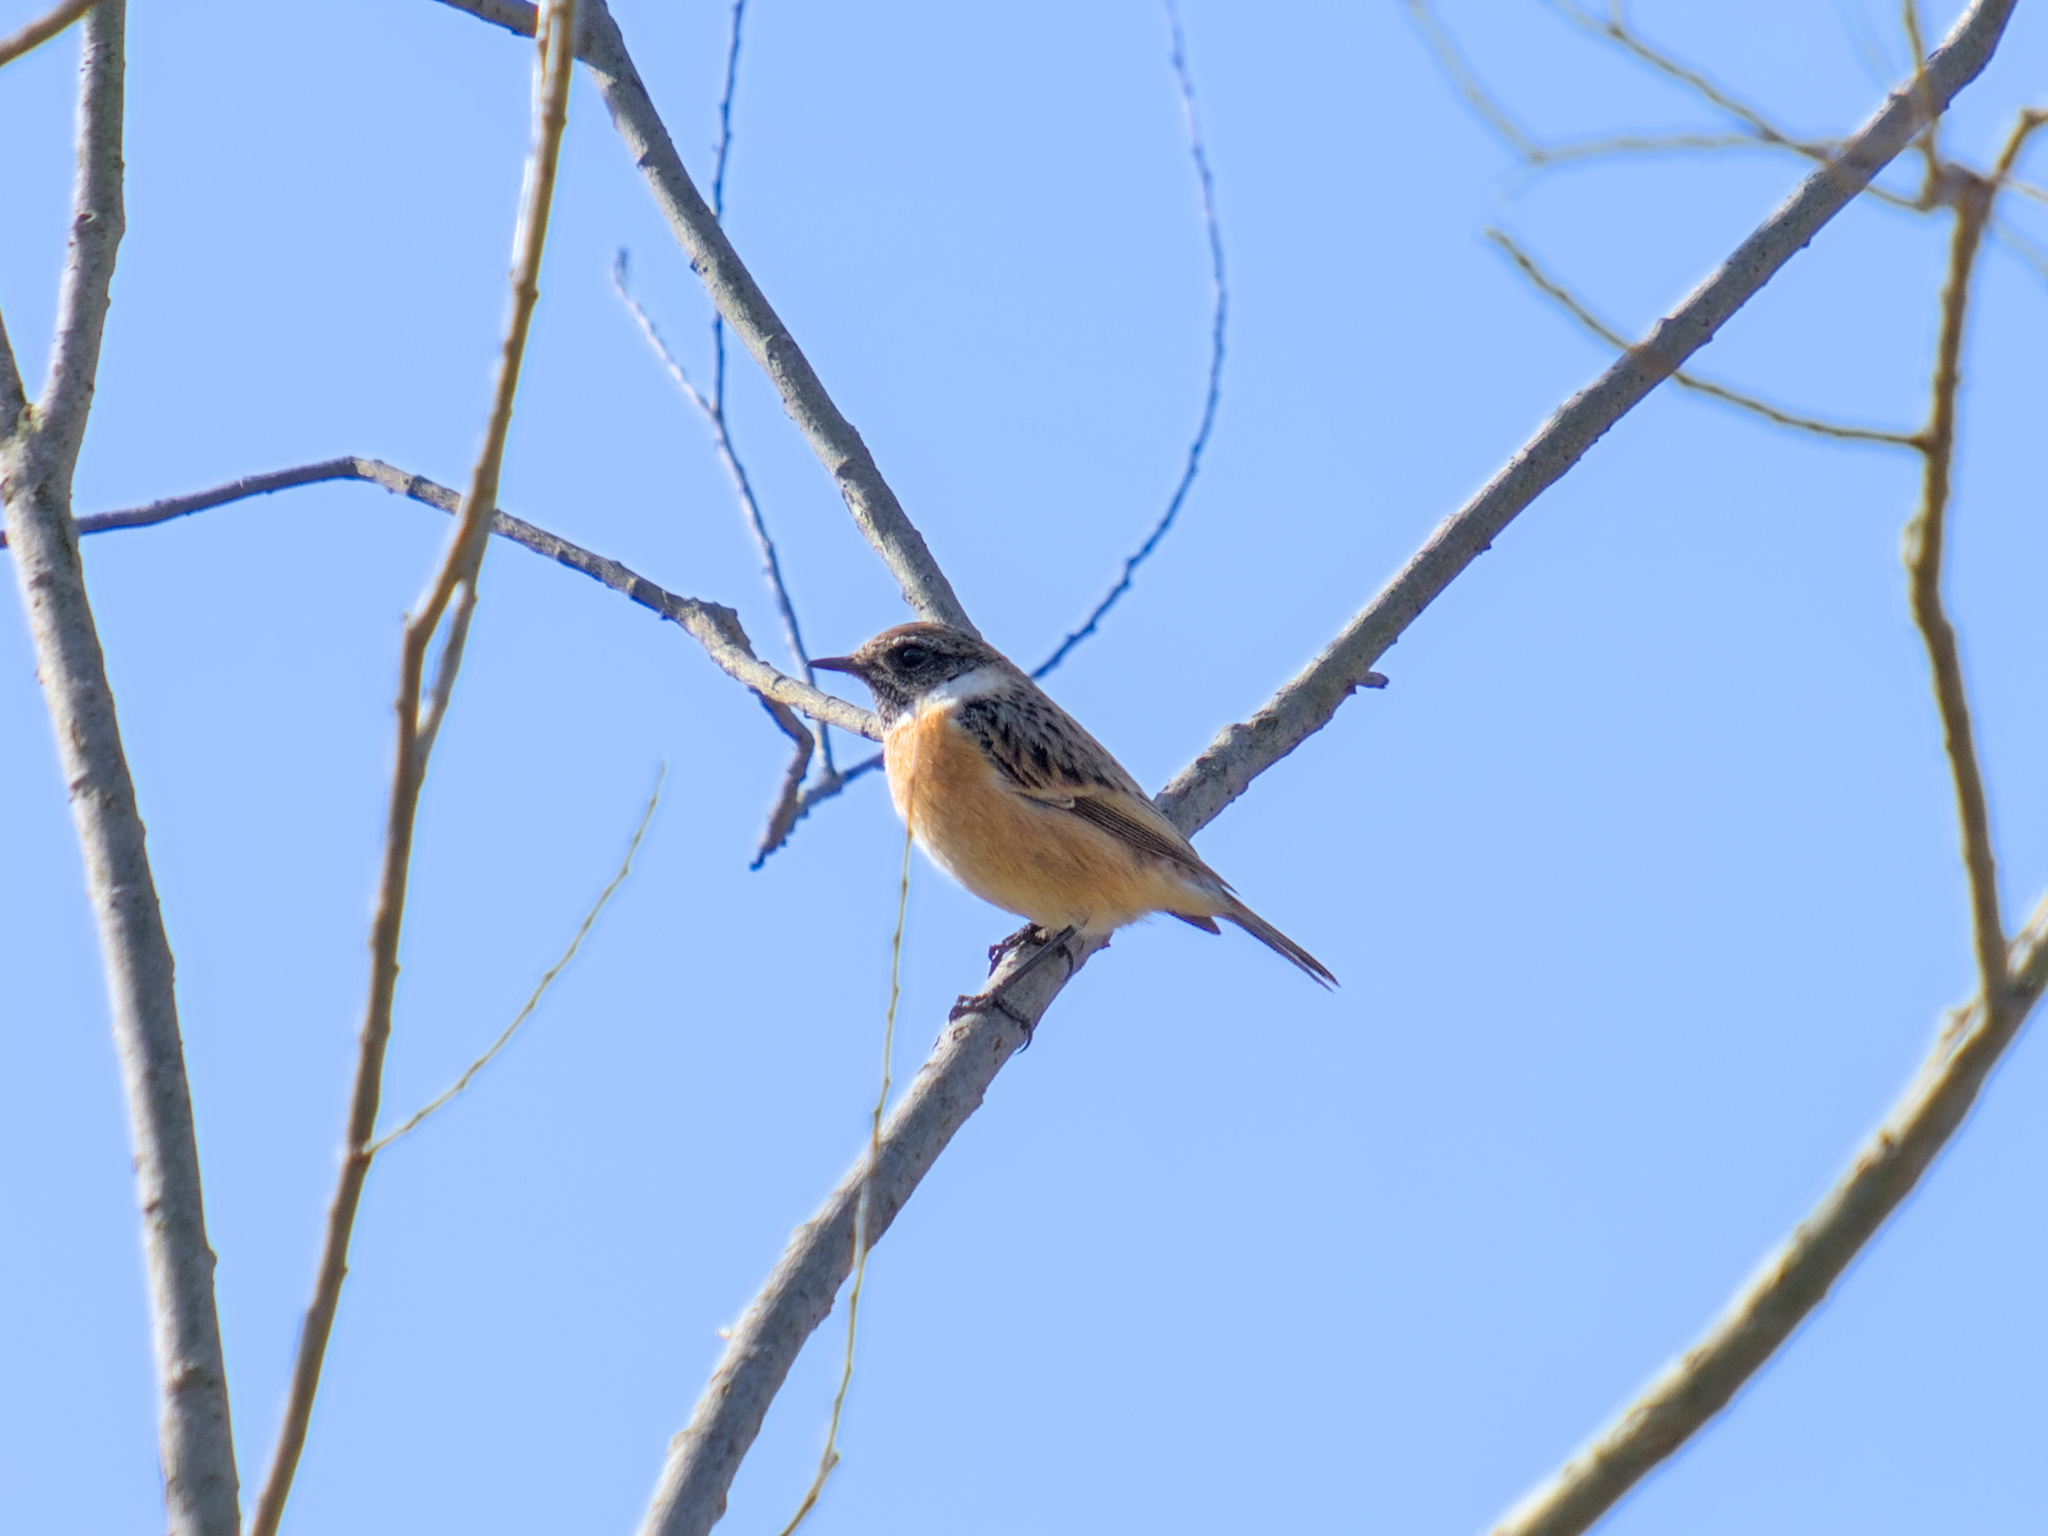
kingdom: Animalia
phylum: Chordata
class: Aves
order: Passeriformes
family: Muscicapidae
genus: Saxicola
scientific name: Saxicola rubetra
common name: Whinchat
